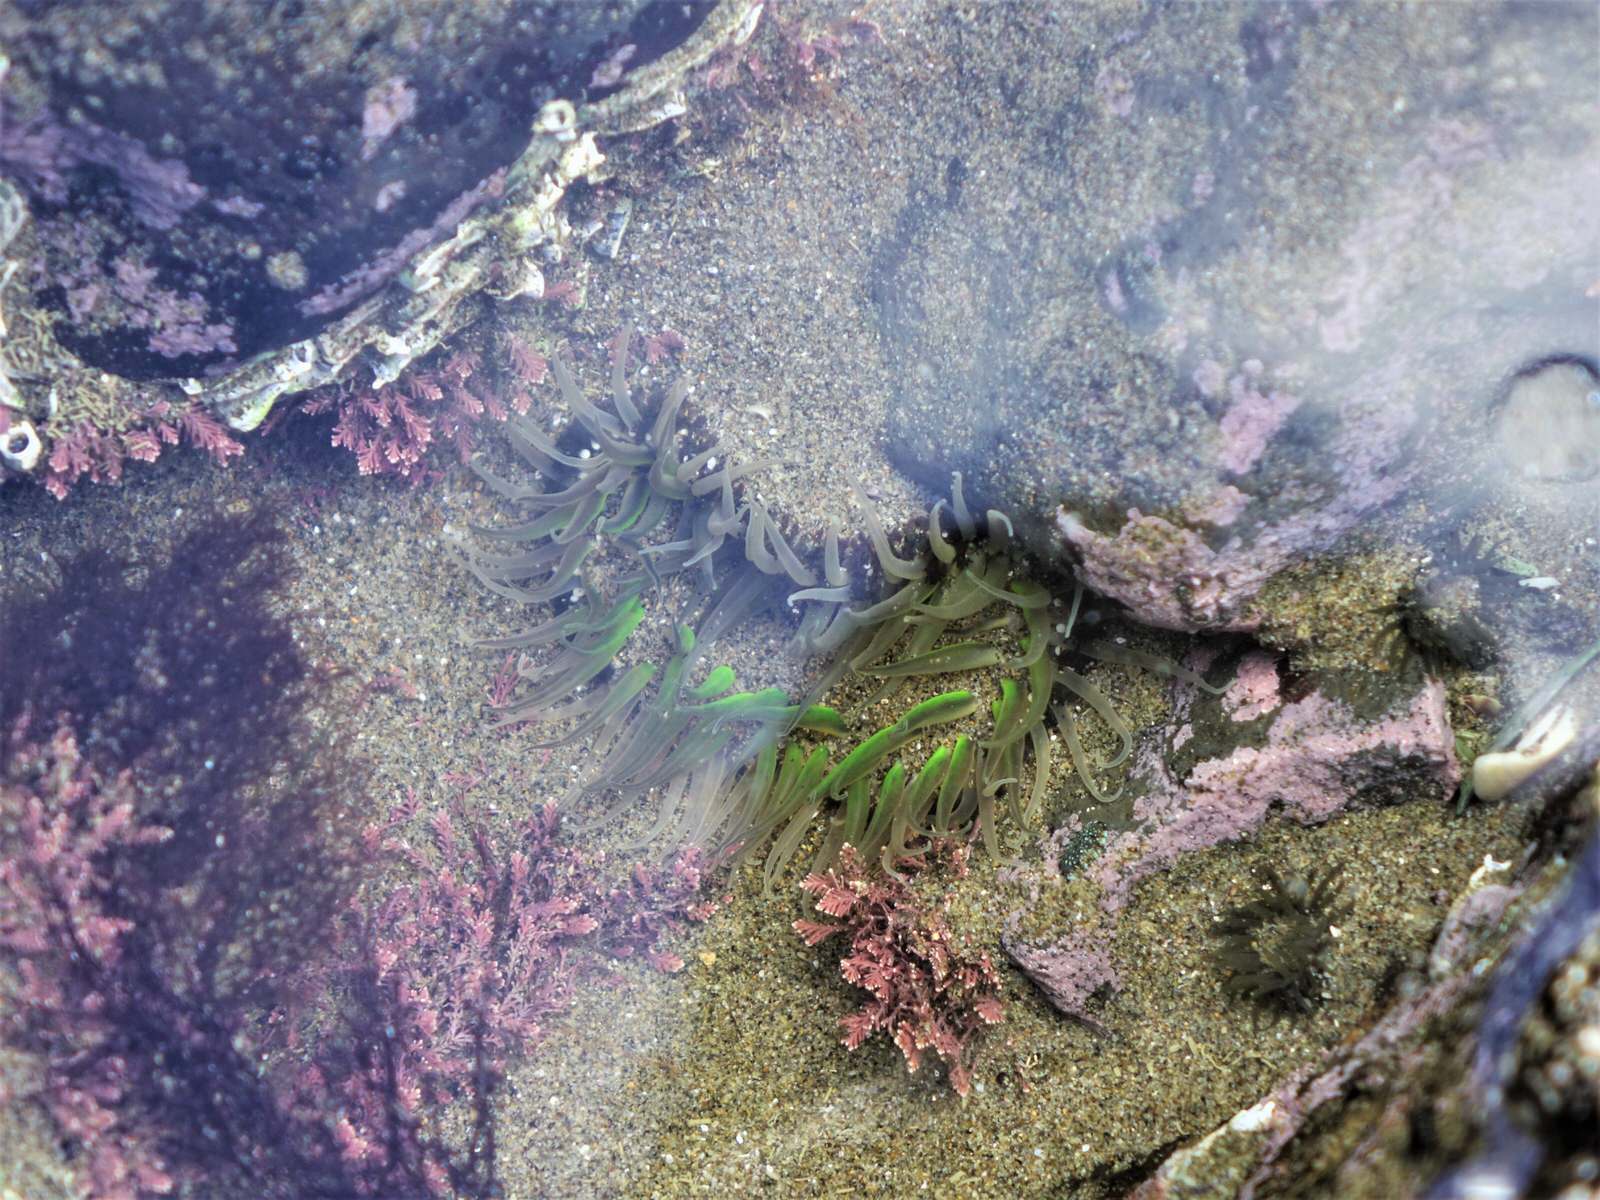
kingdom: Animalia
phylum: Cnidaria
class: Anthozoa
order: Actiniaria
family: Actiniidae
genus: Oulactis
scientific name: Oulactis magna
